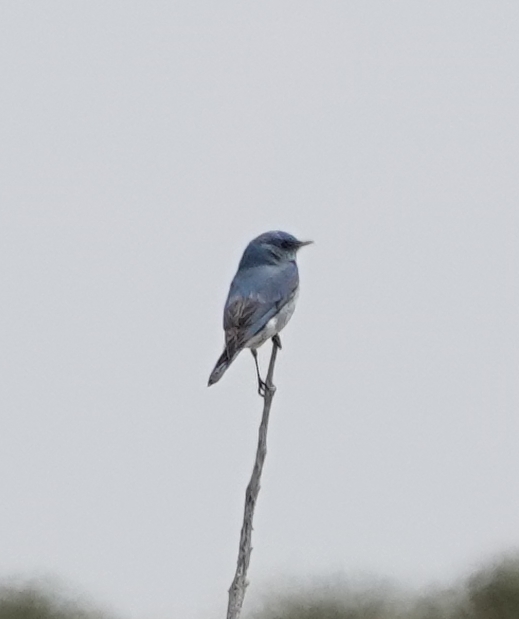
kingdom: Animalia
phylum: Chordata
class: Aves
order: Passeriformes
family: Turdidae
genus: Sialia
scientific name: Sialia currucoides
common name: Mountain bluebird
